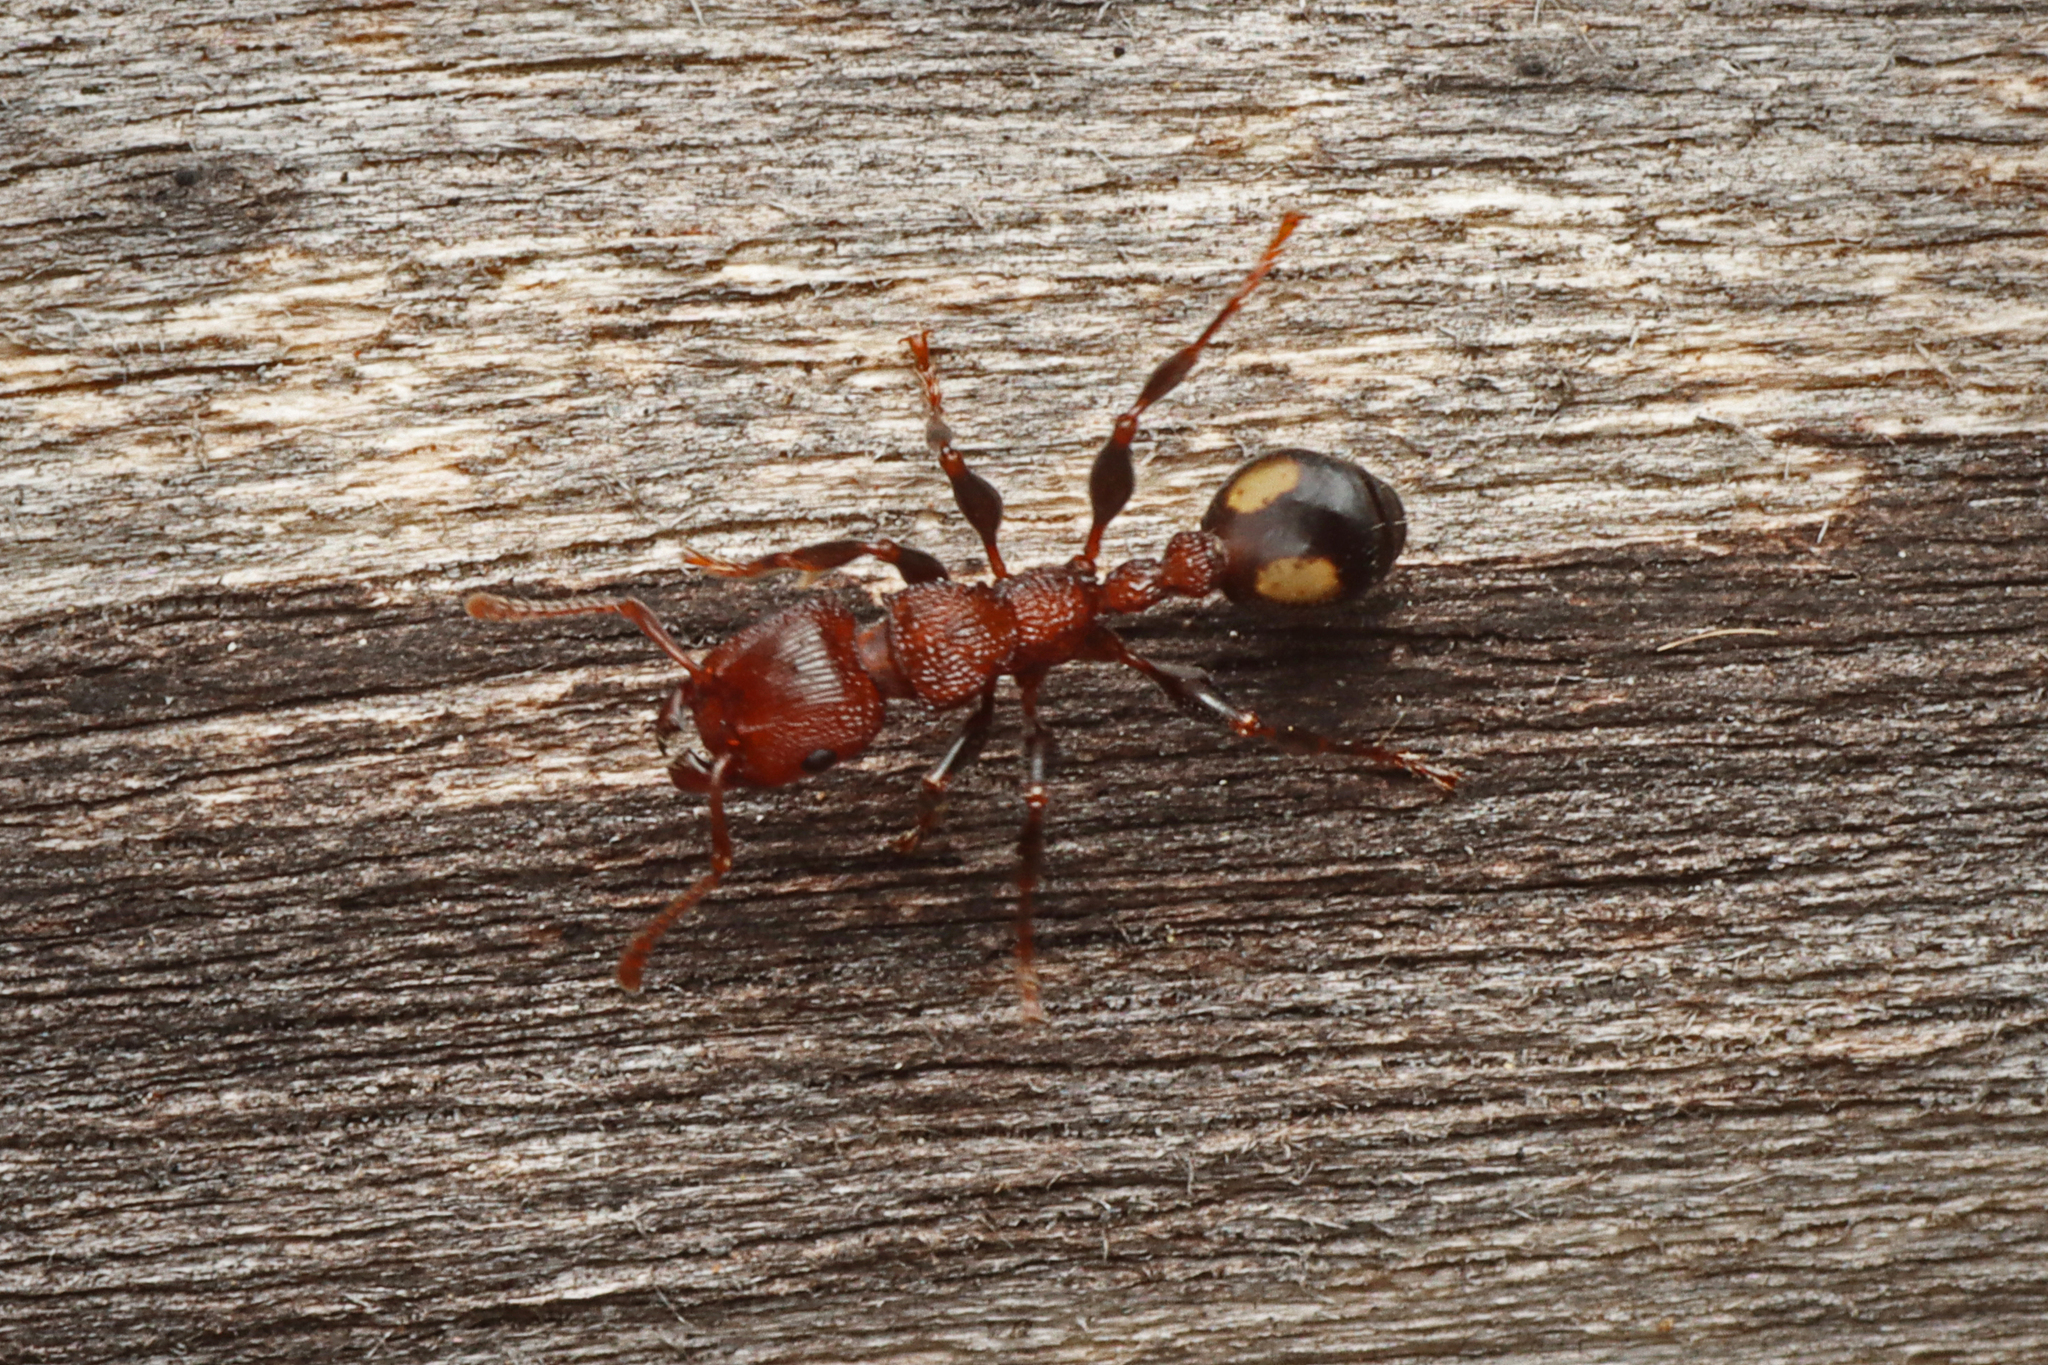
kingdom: Animalia
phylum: Arthropoda
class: Insecta
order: Hymenoptera
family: Formicidae
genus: Podomyrma
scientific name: Podomyrma adelaidae
